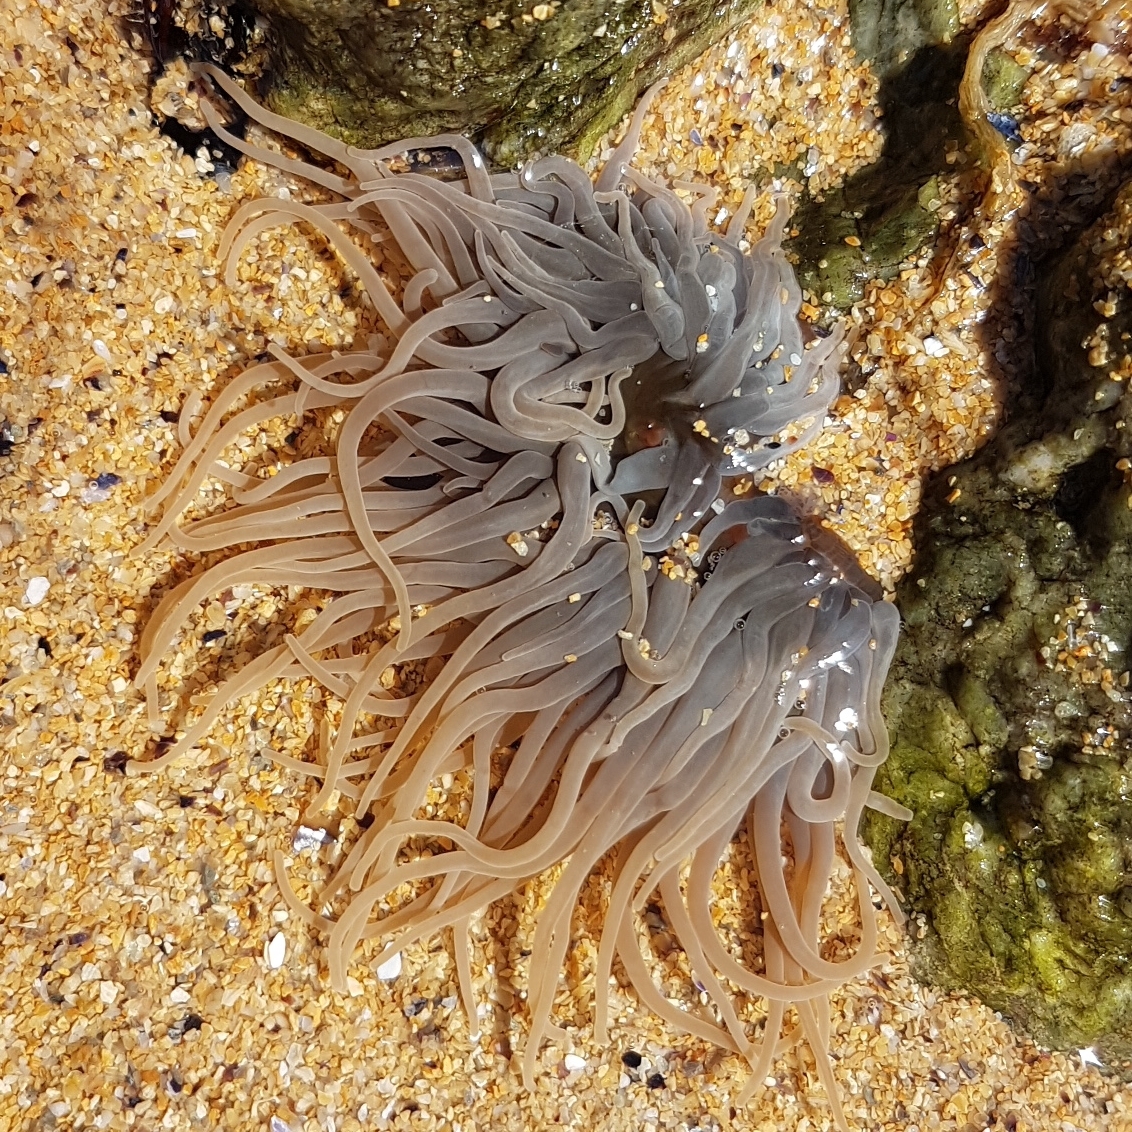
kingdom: Animalia
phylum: Cnidaria
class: Anthozoa
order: Actiniaria
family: Actiniidae
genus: Anemonia
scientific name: Anemonia viridis
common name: Snakelocks anemone
